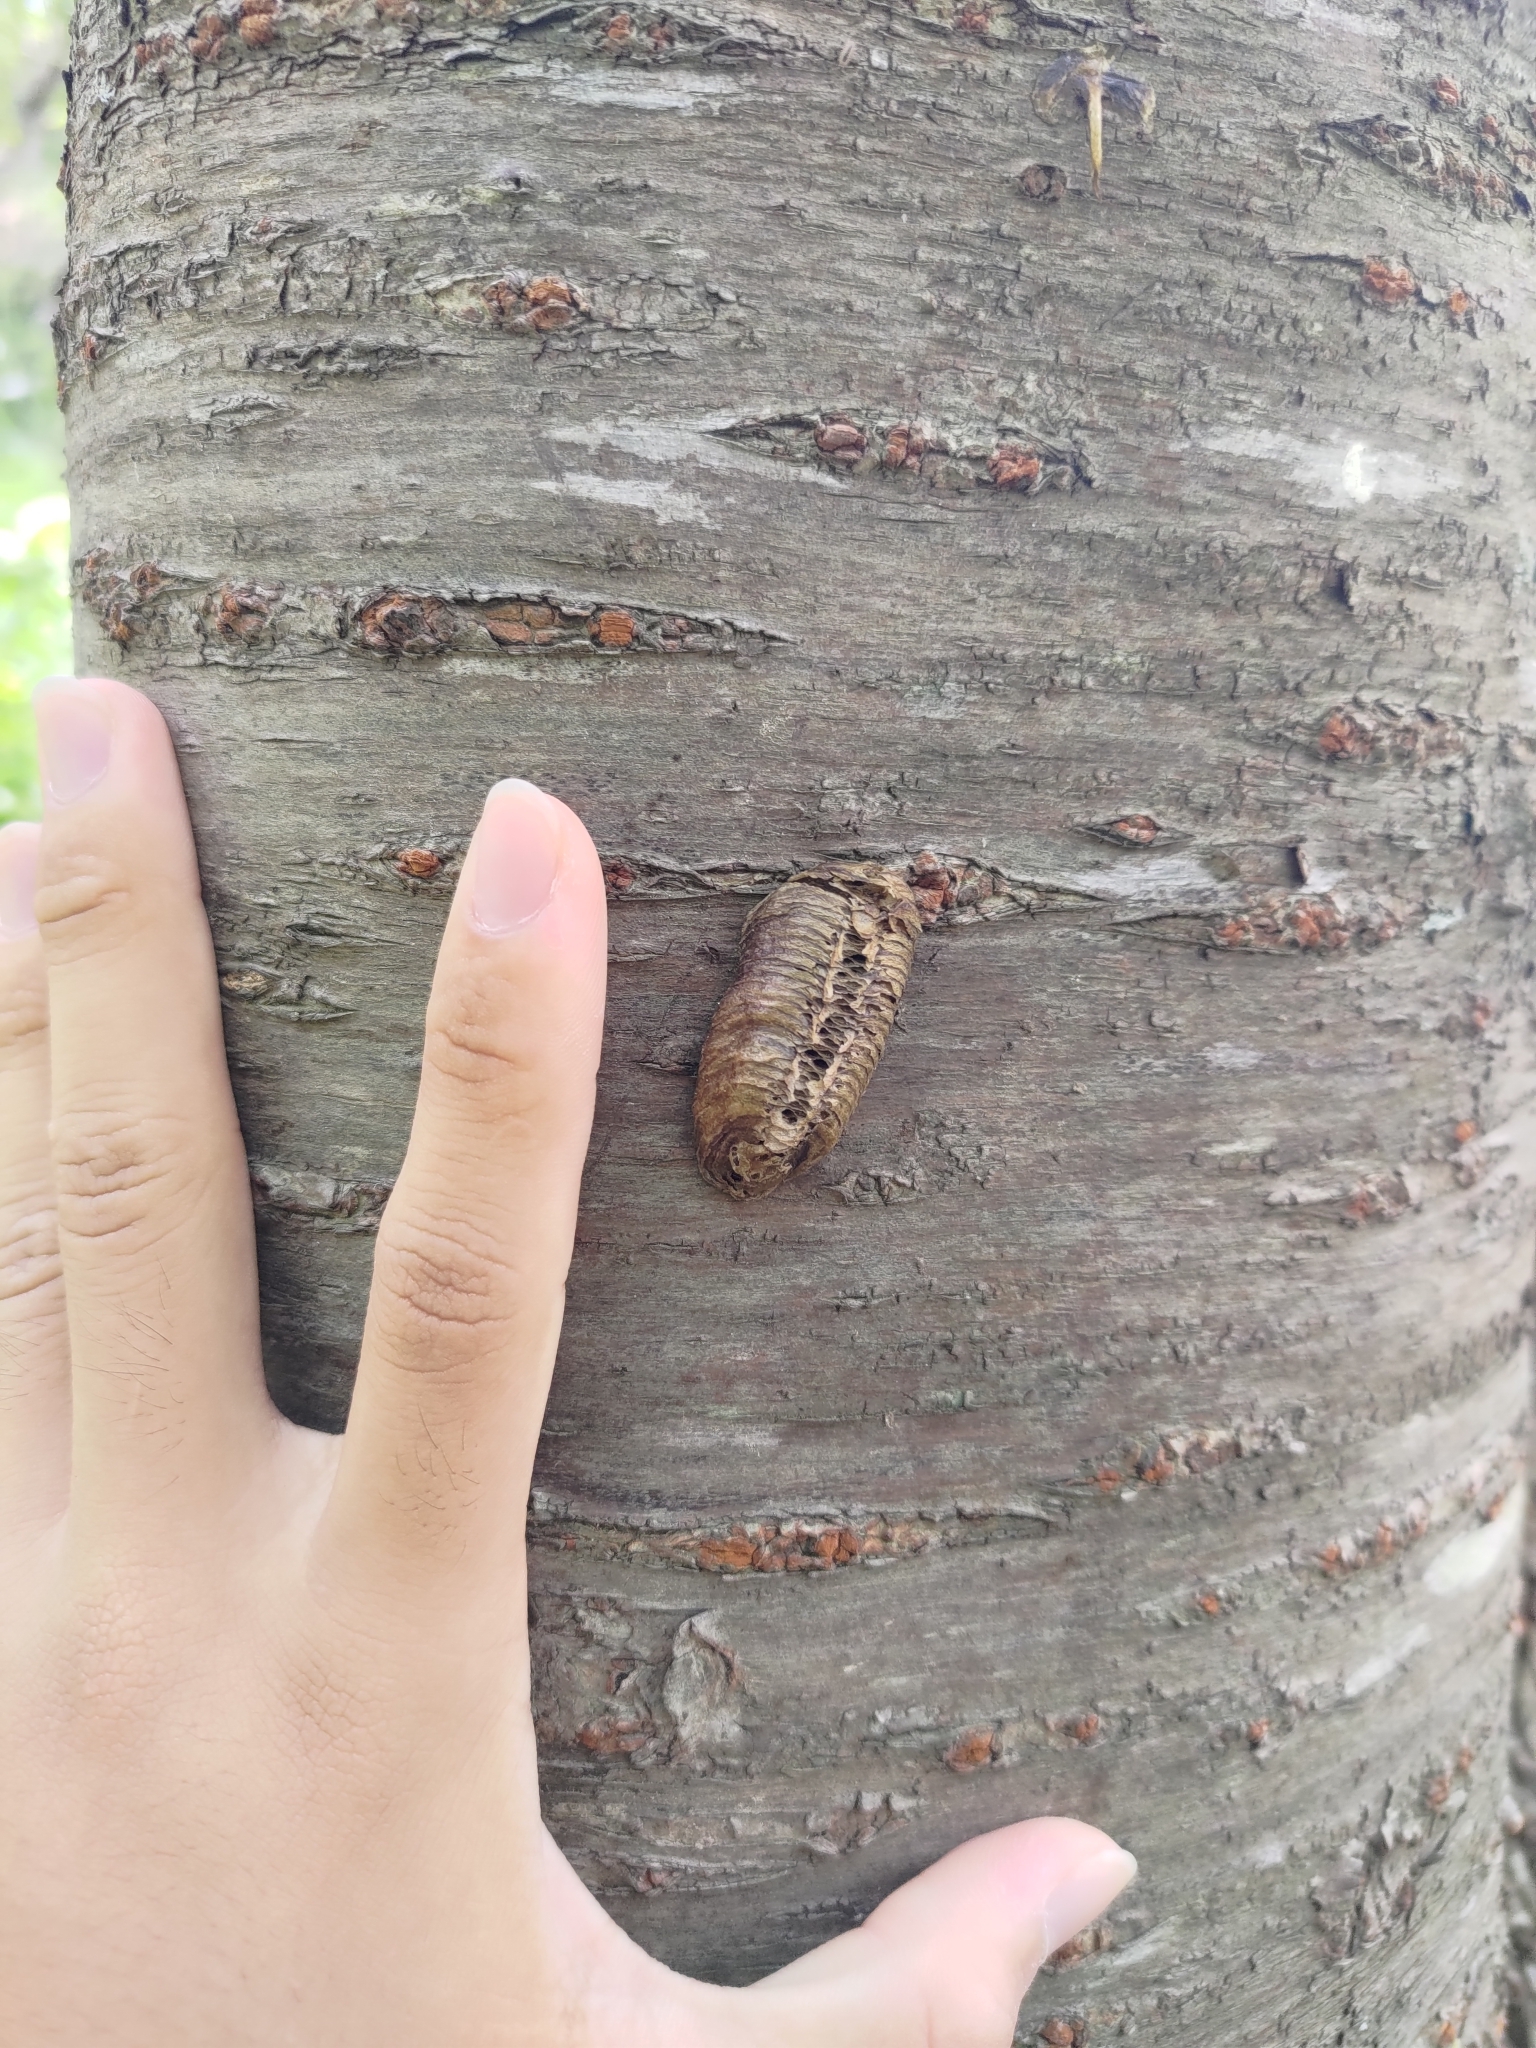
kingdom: Animalia
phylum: Arthropoda
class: Insecta
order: Mantodea
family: Mantidae
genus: Hierodula
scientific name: Hierodula patellifera
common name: Asian mantis
